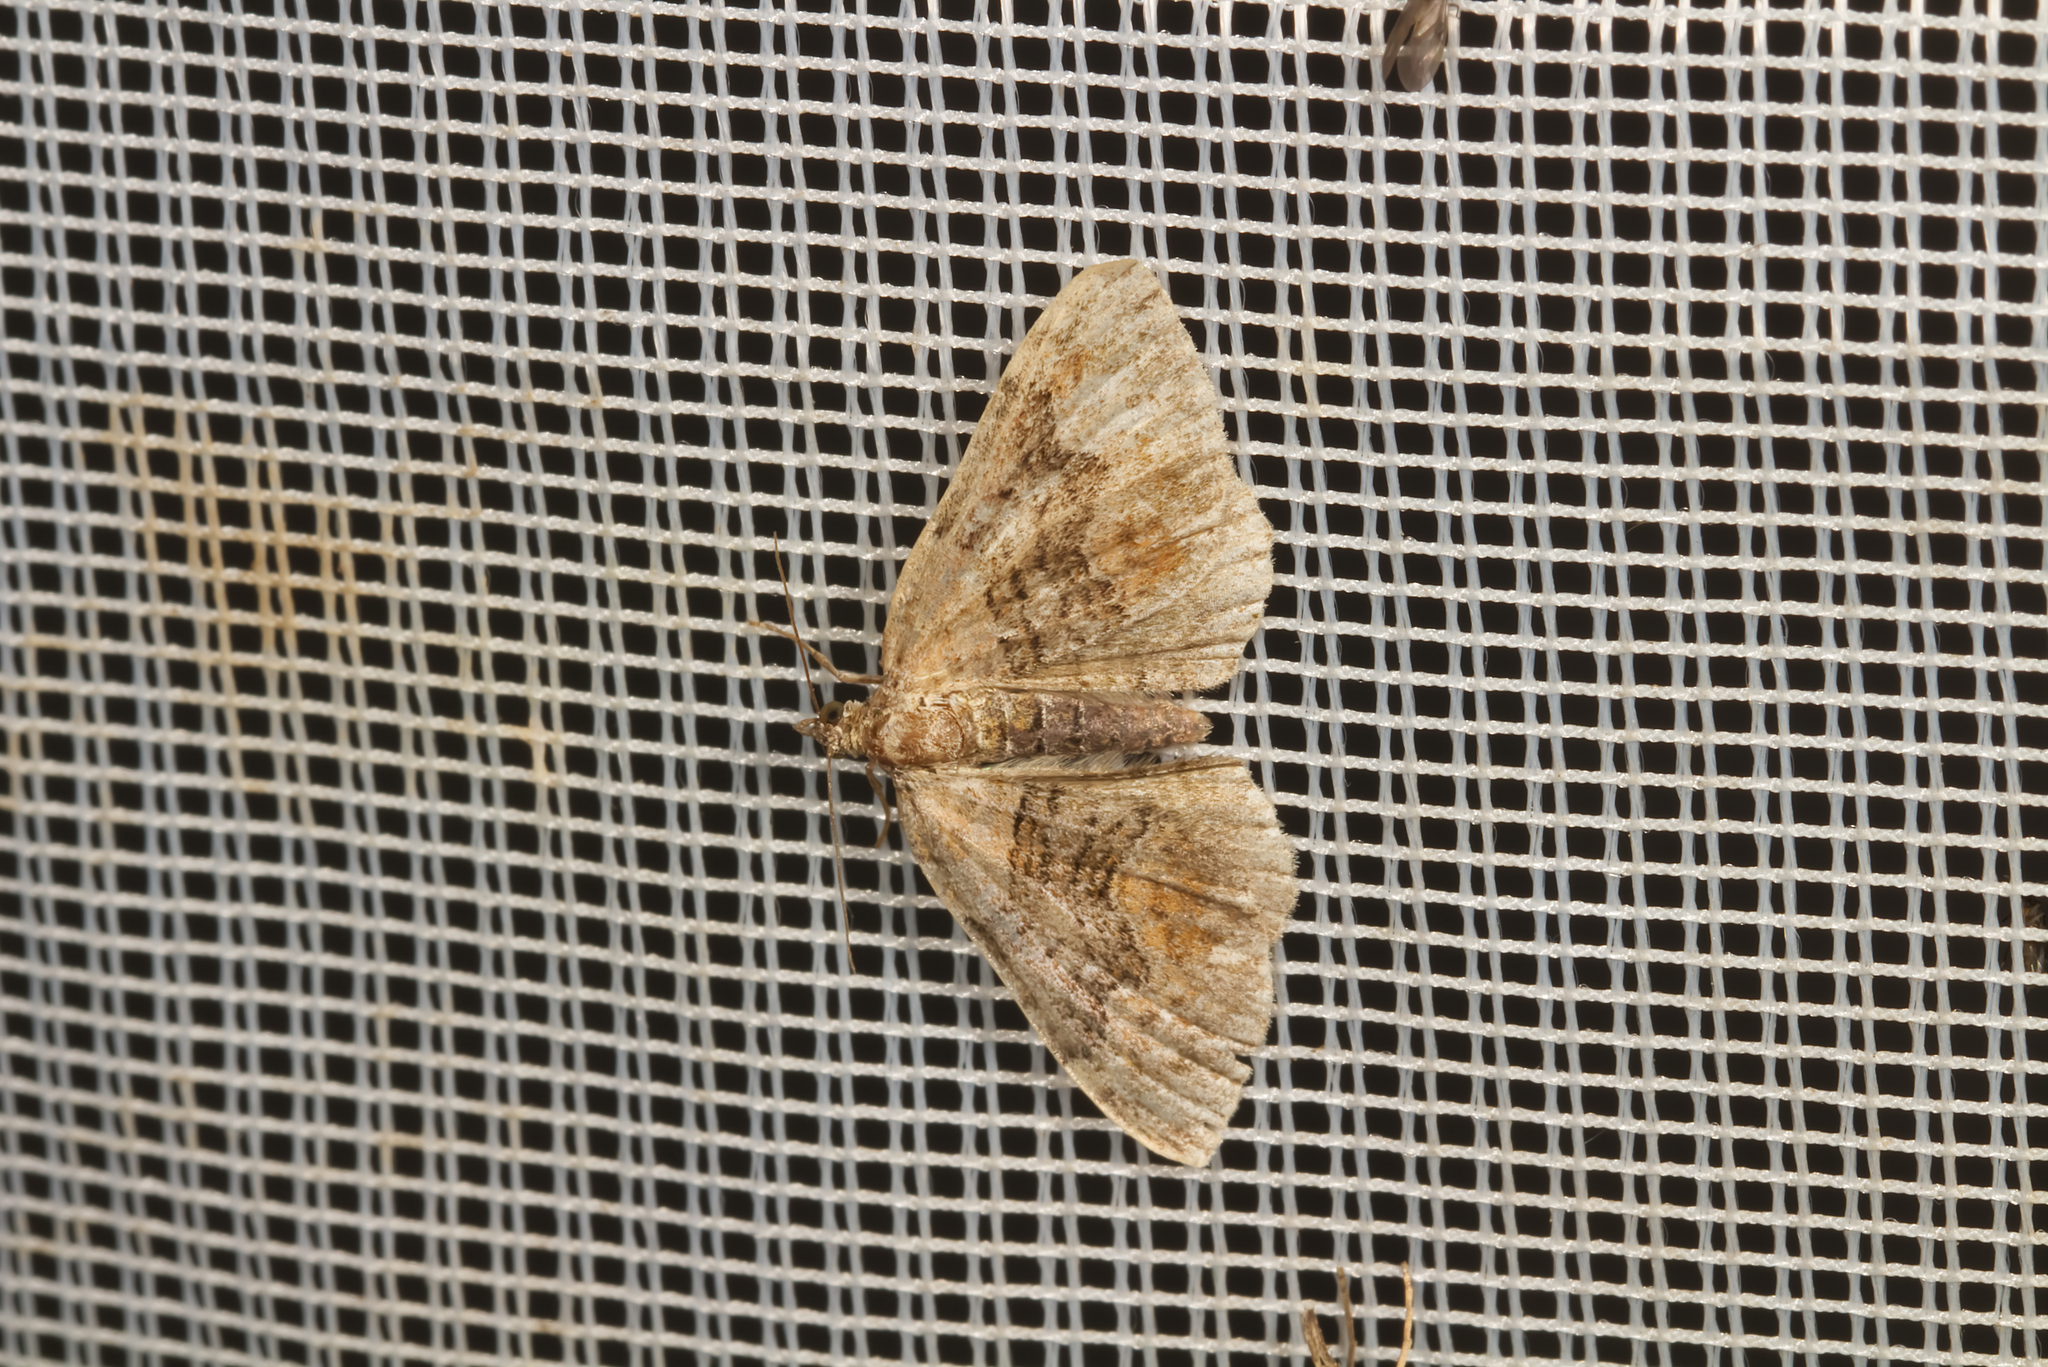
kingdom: Animalia
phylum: Arthropoda
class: Insecta
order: Lepidoptera
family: Geometridae
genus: Xanthorhoe
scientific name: Xanthorhoe quadrifasiata
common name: Large twin-spot carpet
